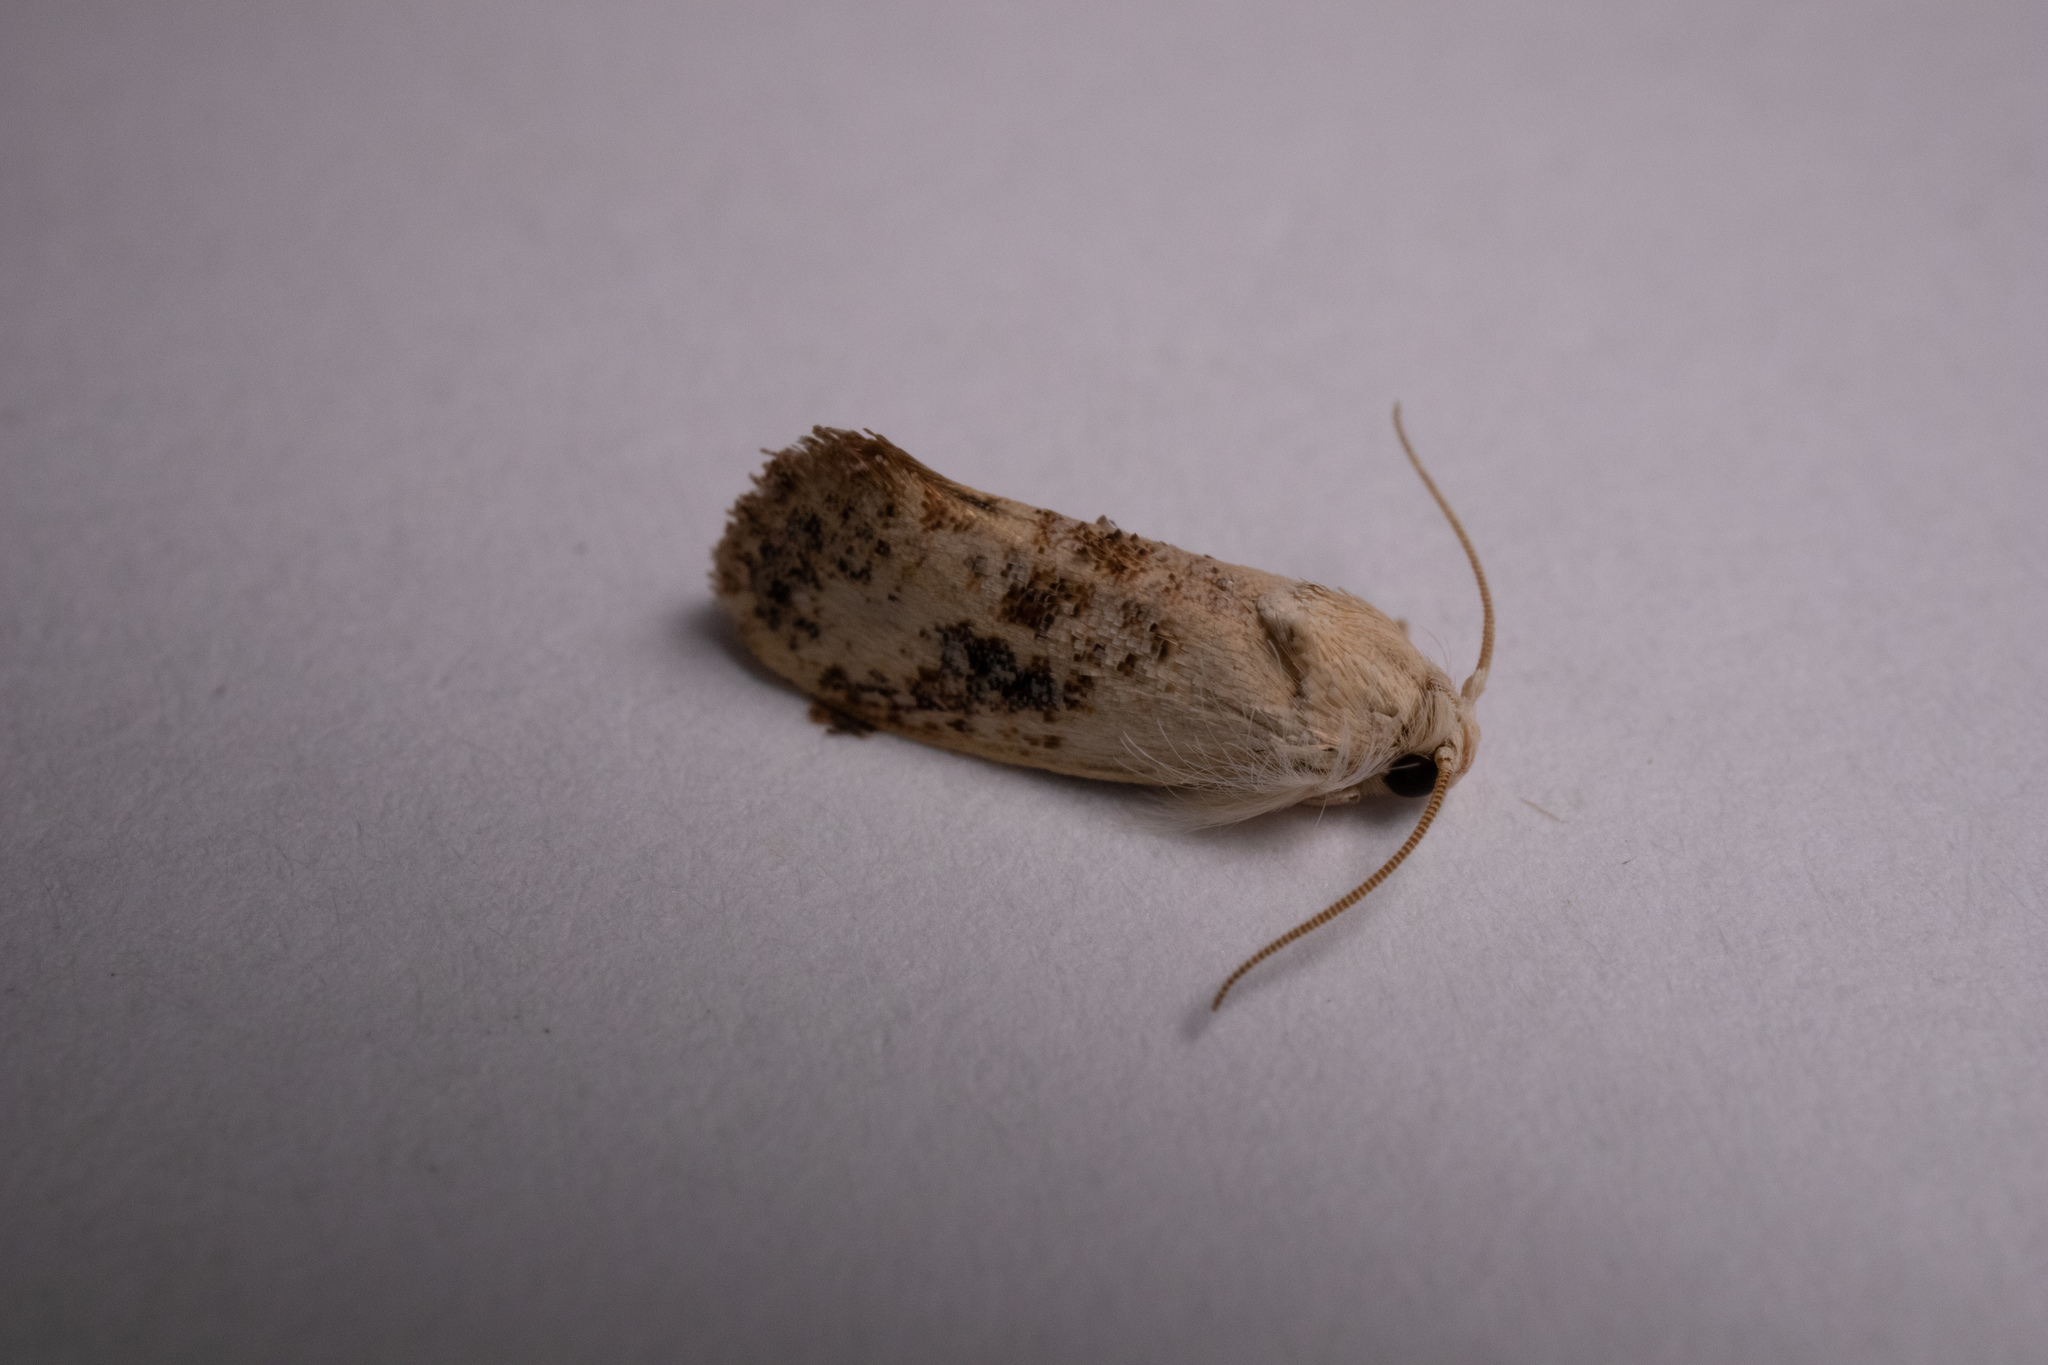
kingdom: Animalia
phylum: Arthropoda
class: Insecta
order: Lepidoptera
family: Tineidae
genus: Acrolophus
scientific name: Acrolophus mycetophagus
